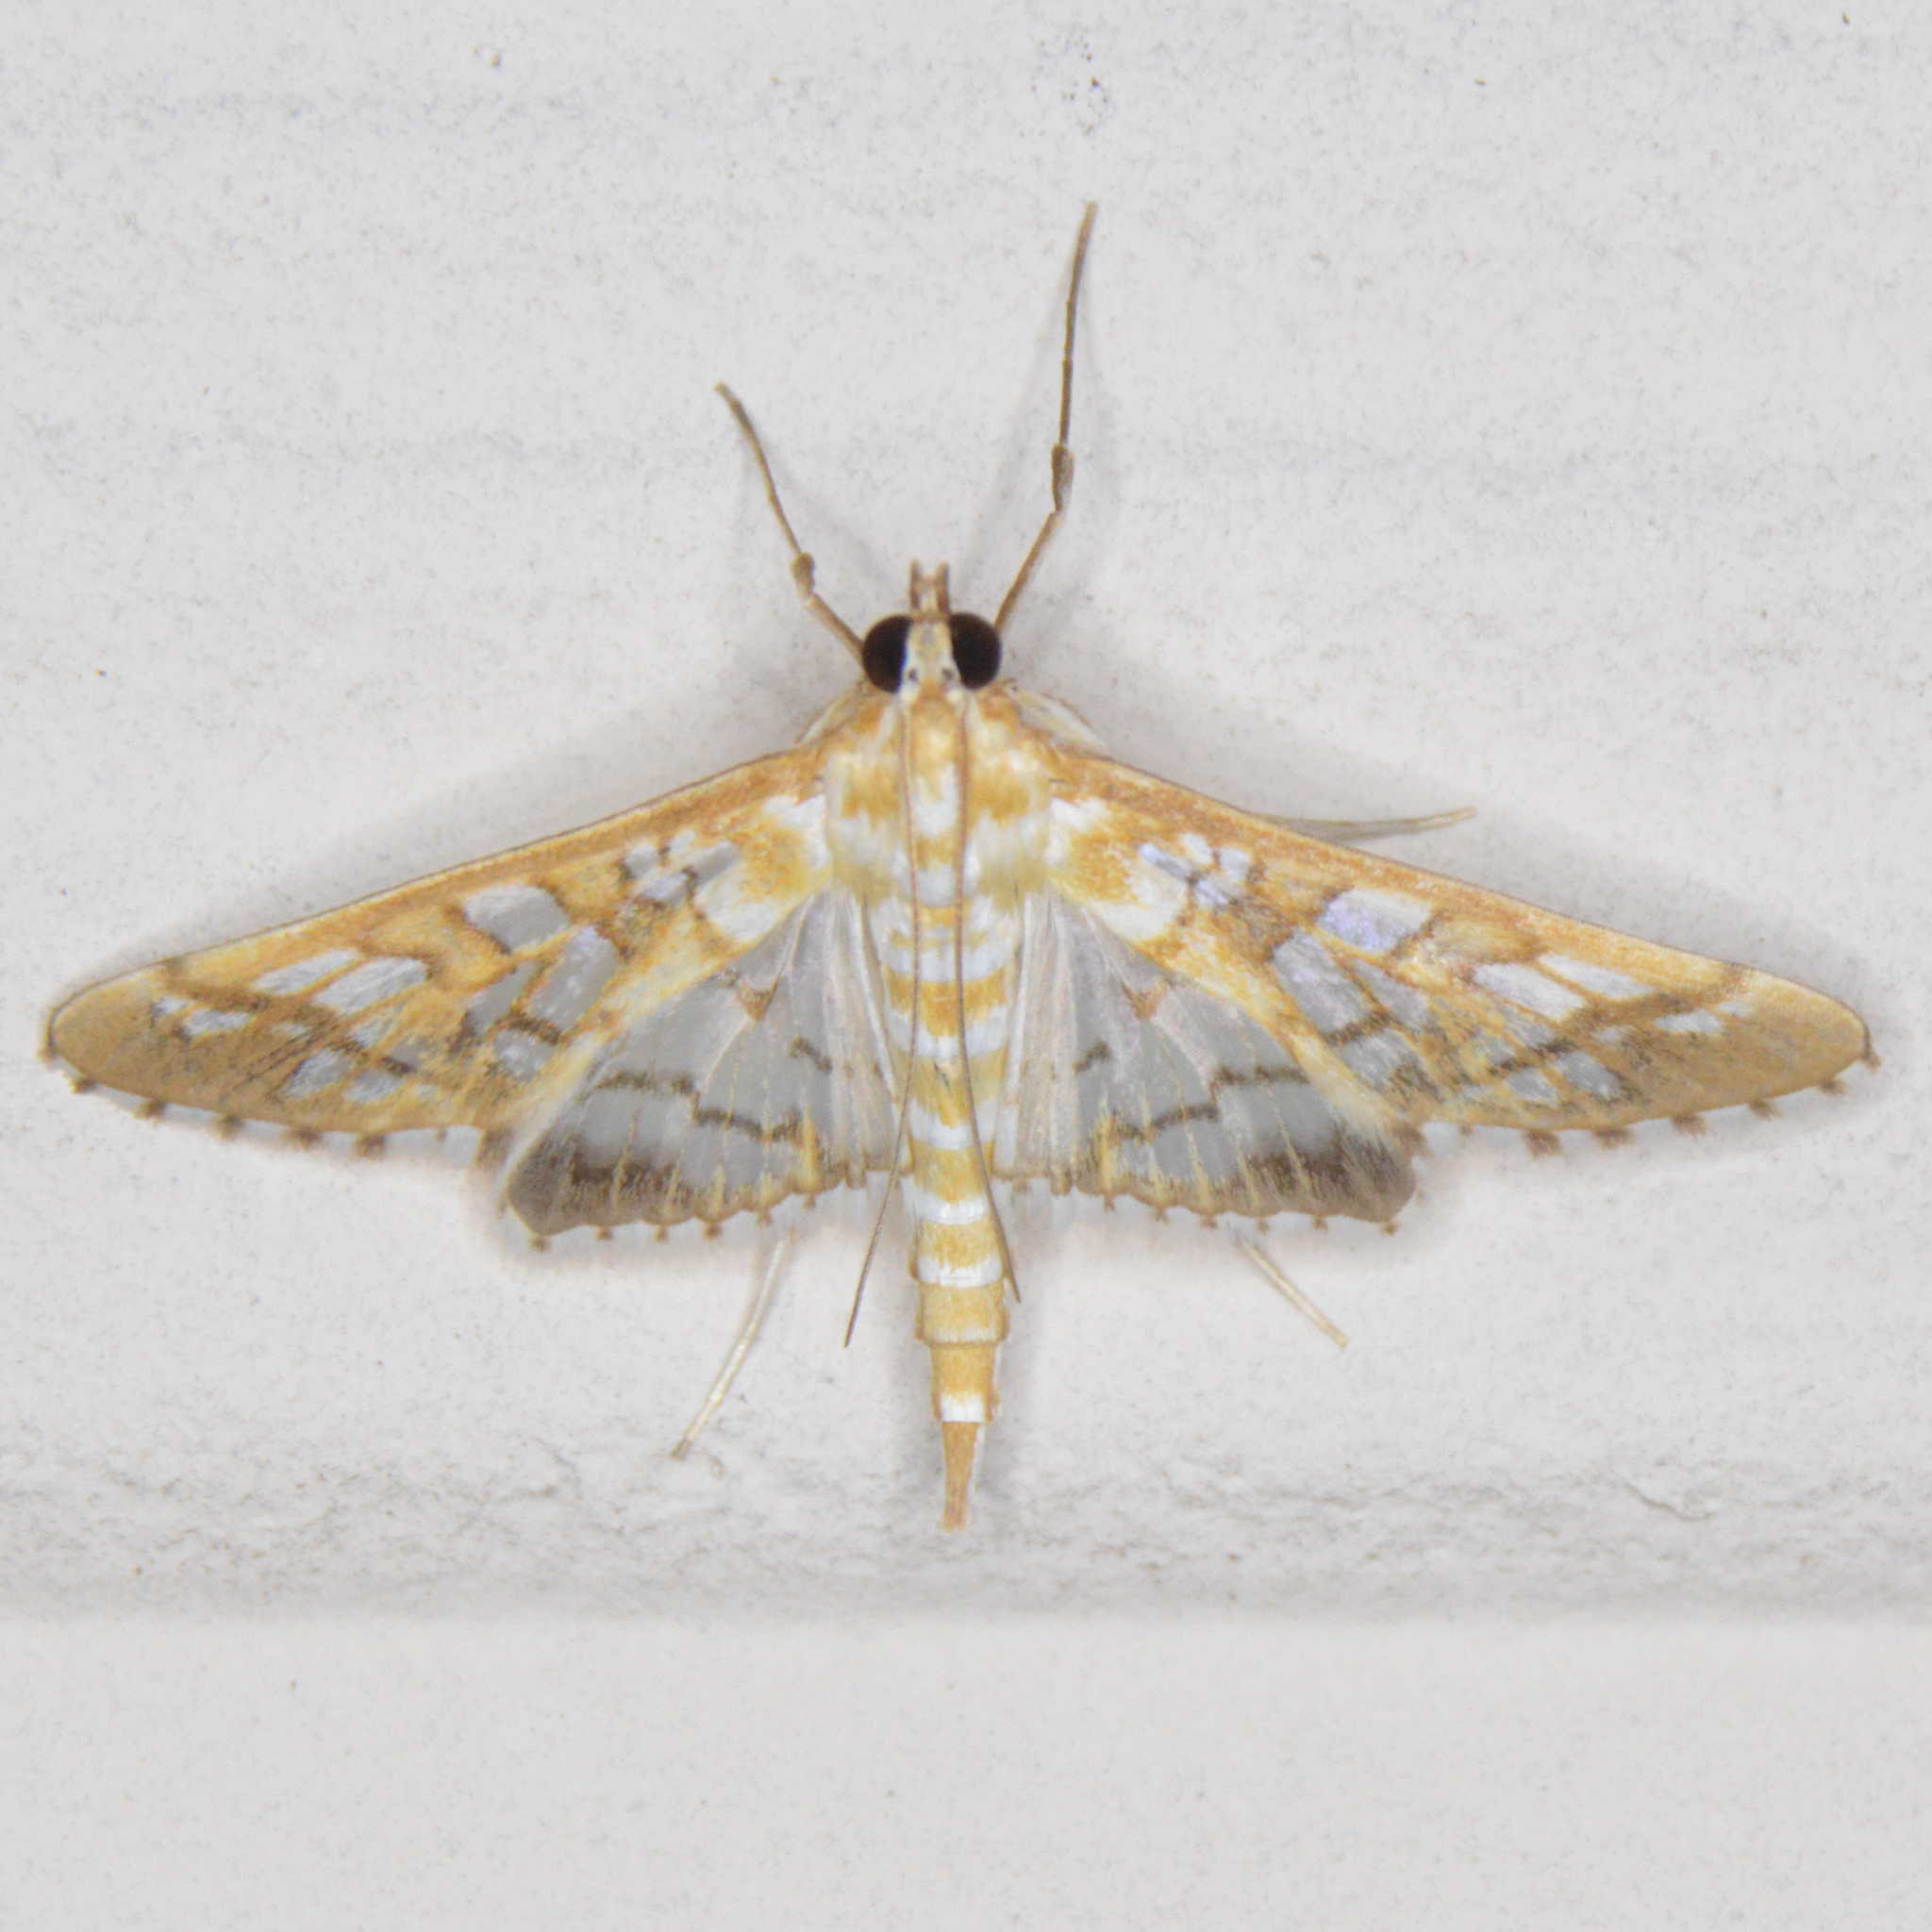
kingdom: Animalia
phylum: Arthropoda
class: Insecta
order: Lepidoptera
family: Crambidae
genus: Epipagis
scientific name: Epipagis fenestralis
